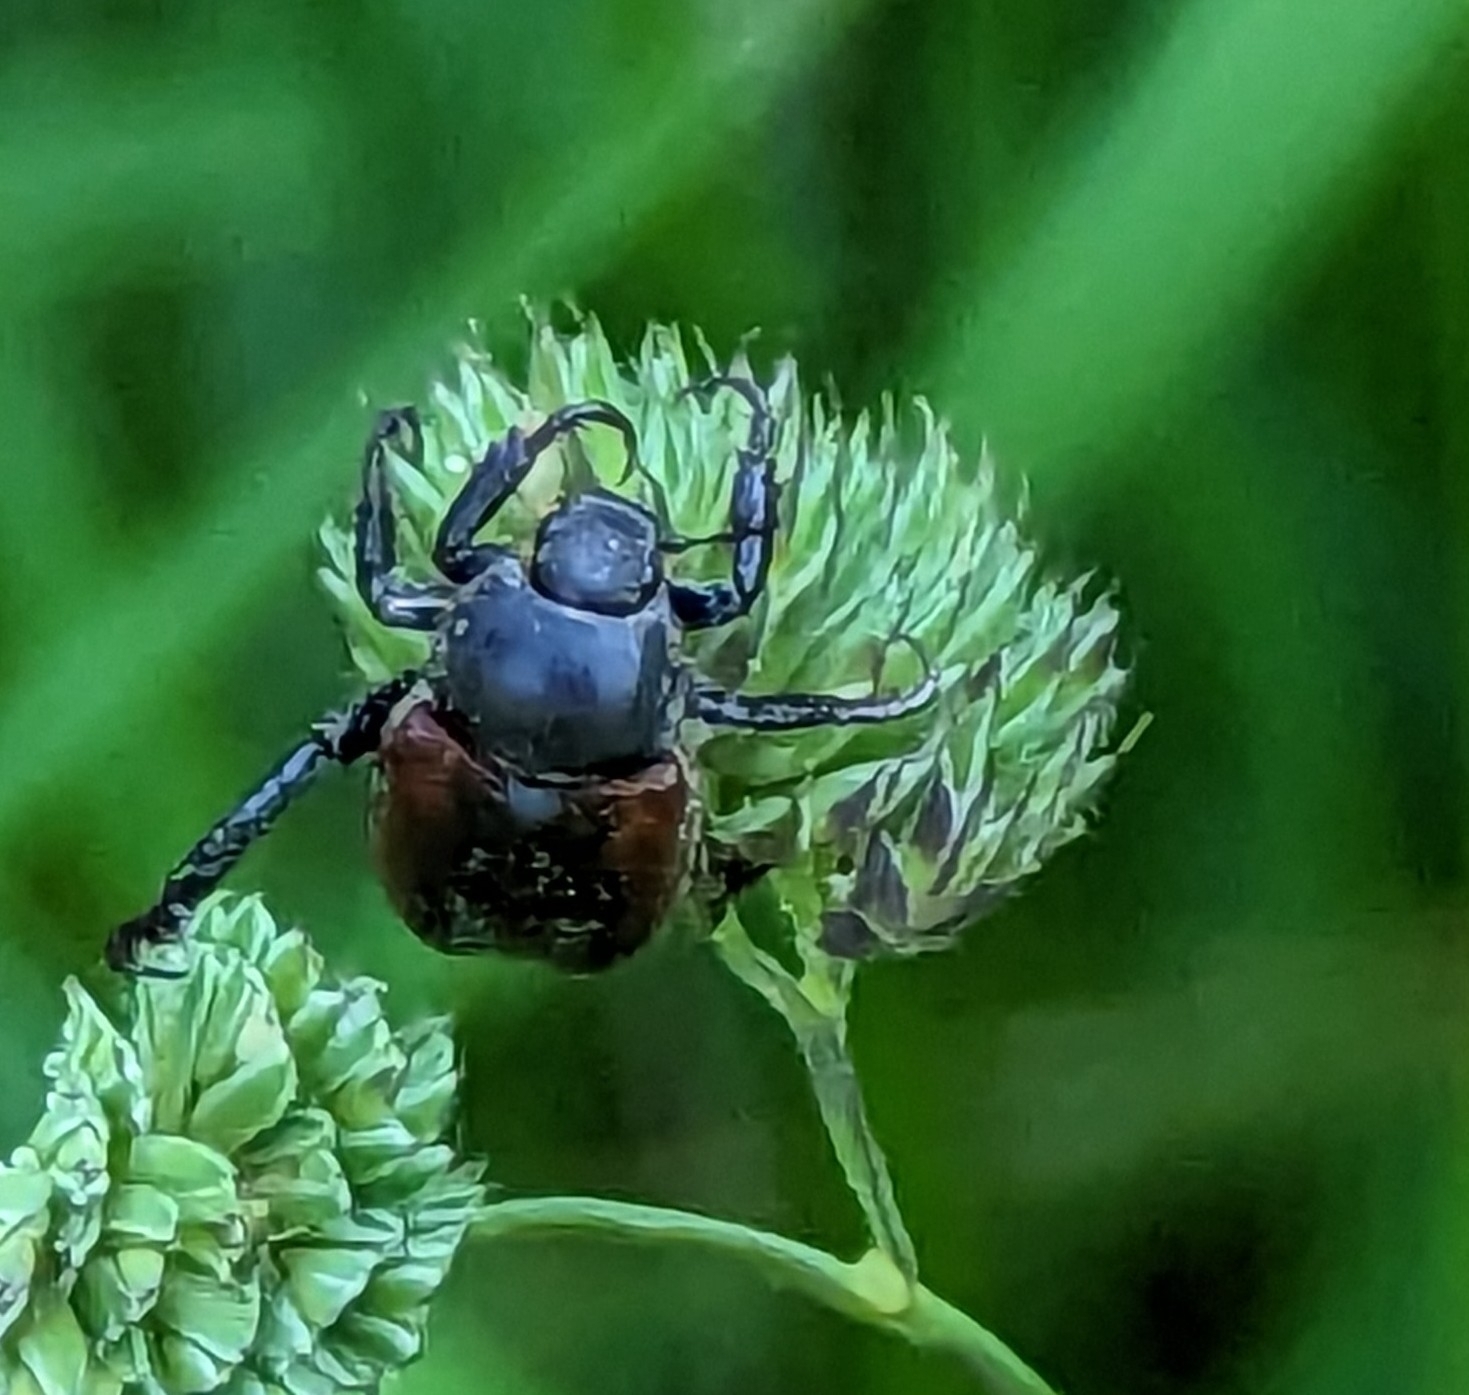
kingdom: Animalia
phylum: Arthropoda
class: Insecta
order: Coleoptera
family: Scarabaeidae
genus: Hoplia
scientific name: Hoplia philanthus
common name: Welsh chafer
